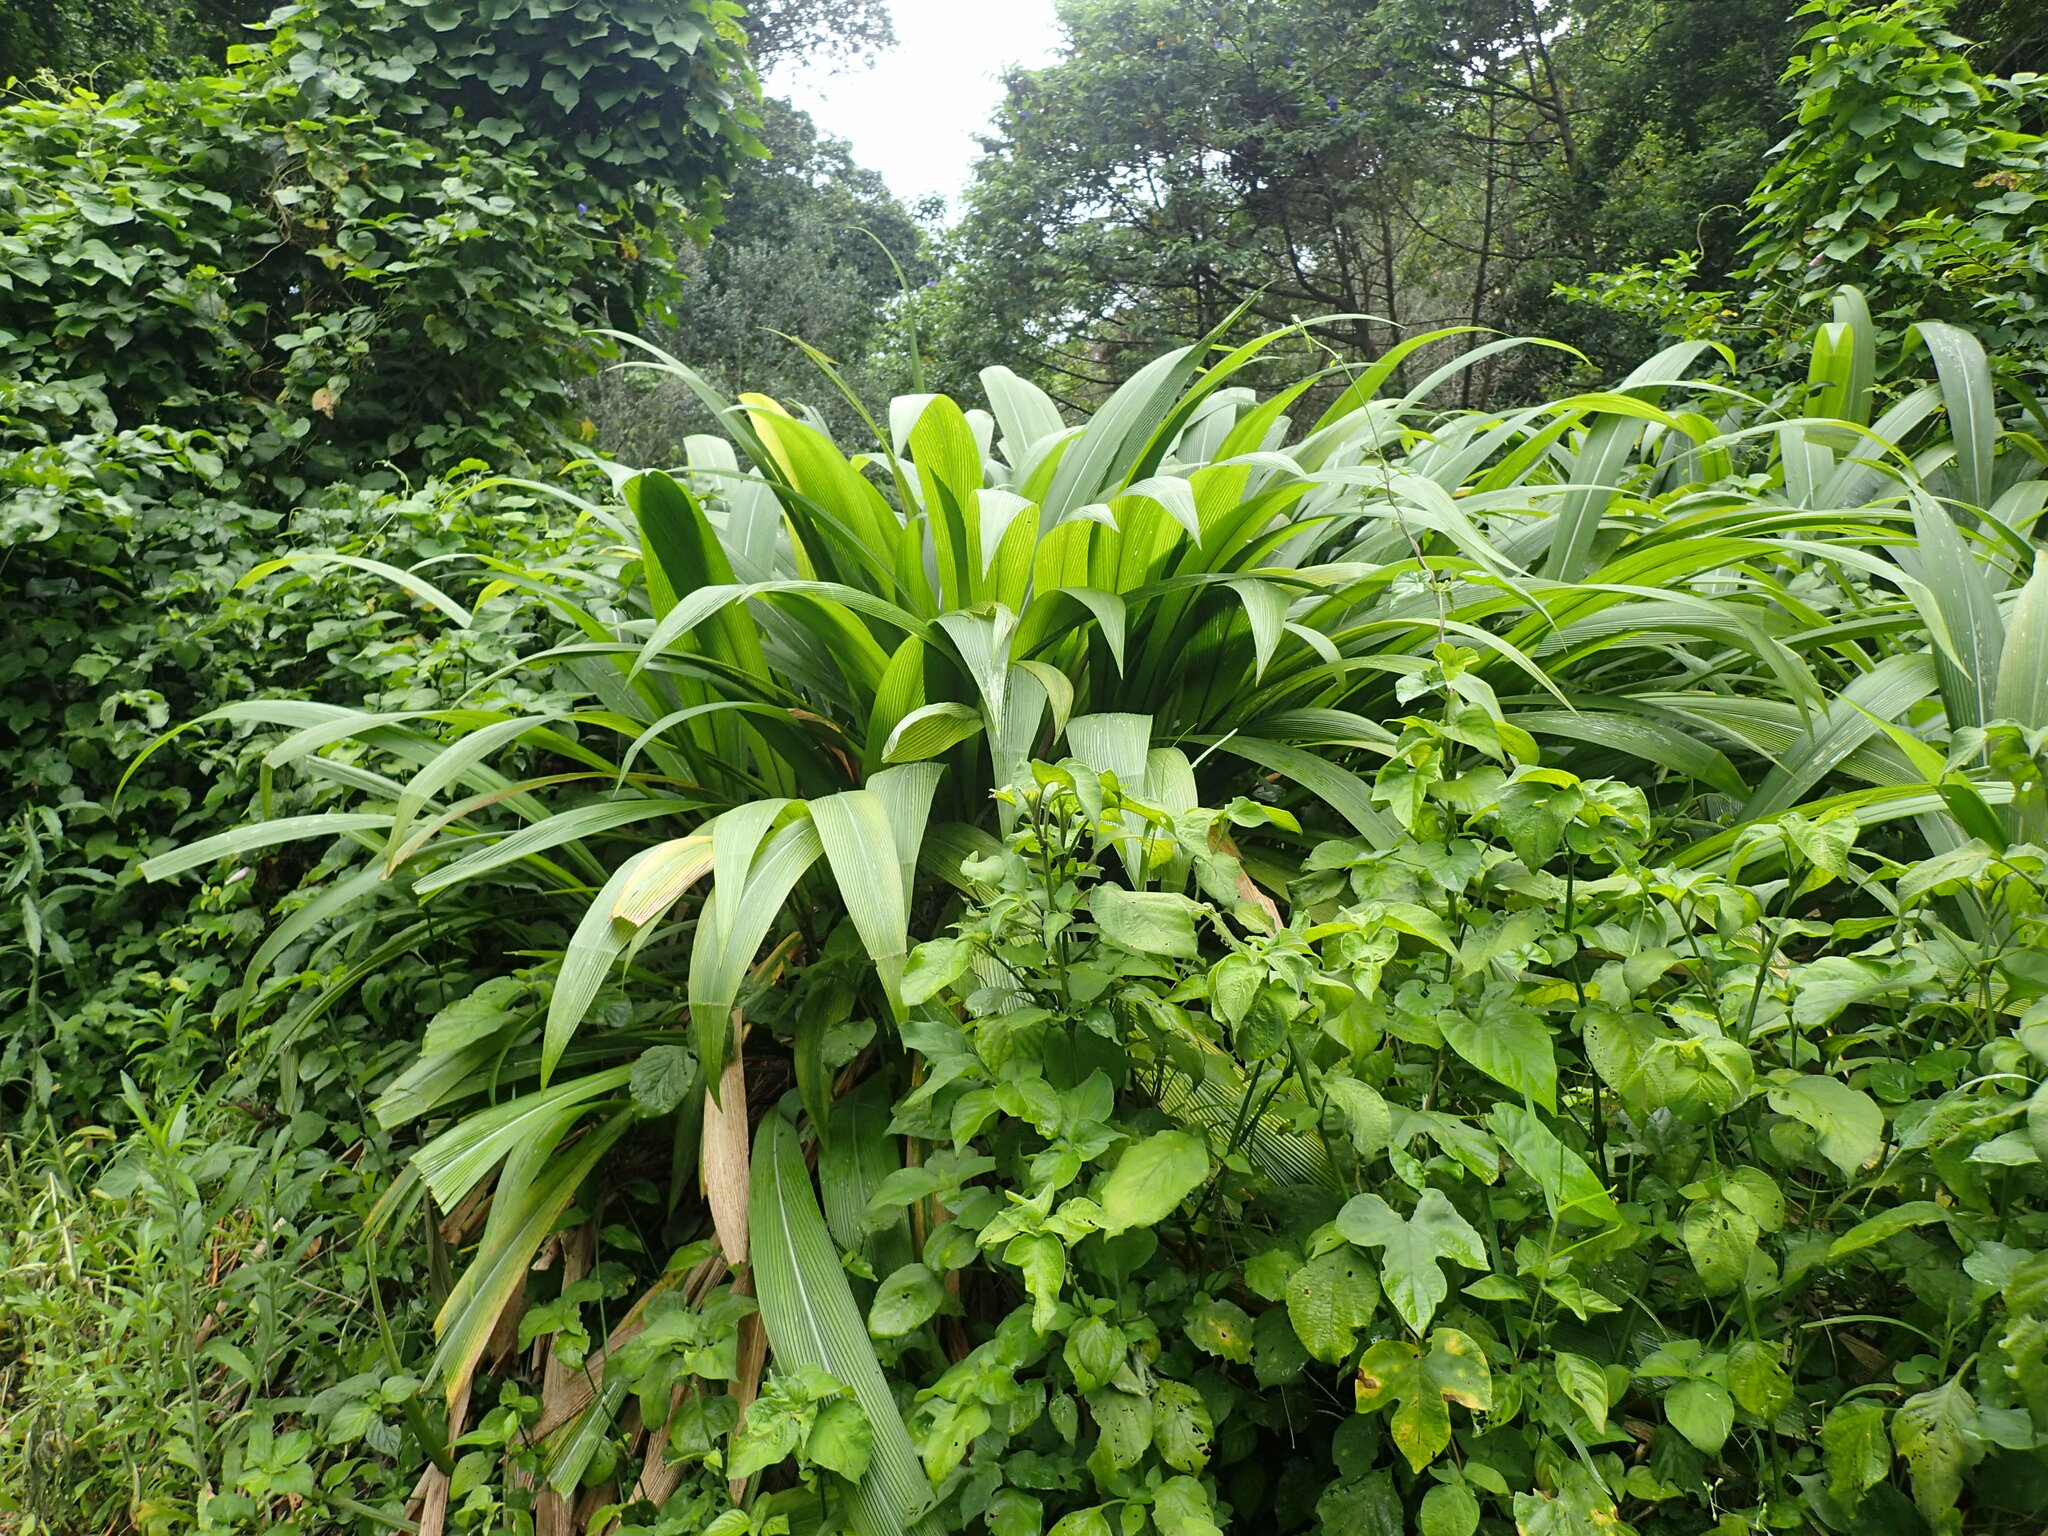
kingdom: Plantae
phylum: Tracheophyta
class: Liliopsida
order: Poales
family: Poaceae
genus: Setaria
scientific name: Setaria megaphylla
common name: Bigleaf bristlegrass
